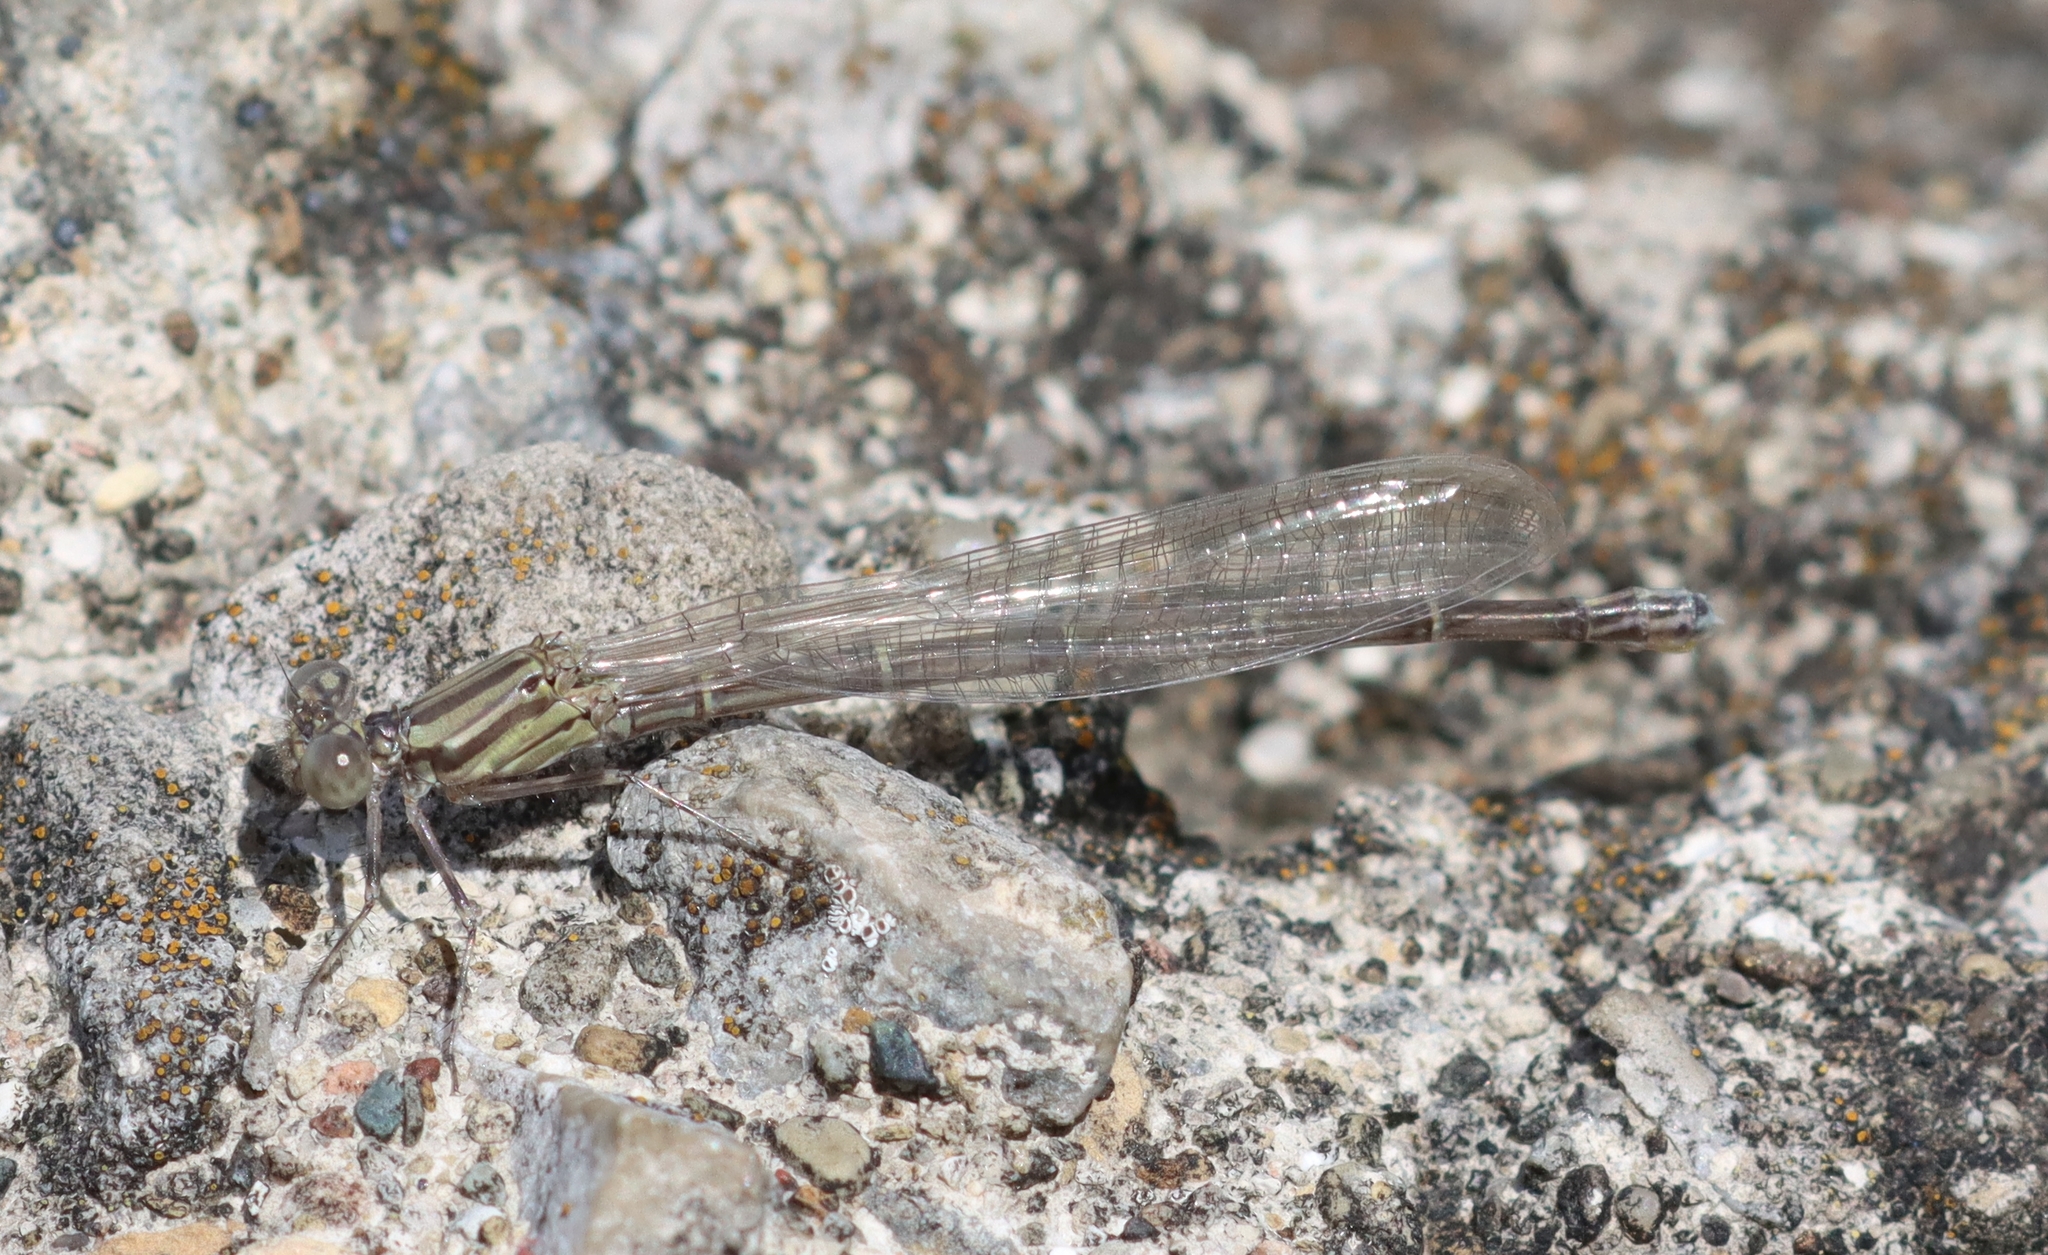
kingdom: Animalia
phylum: Arthropoda
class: Insecta
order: Odonata
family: Coenagrionidae
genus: Argia
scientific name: Argia translata
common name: Dusky dancer
